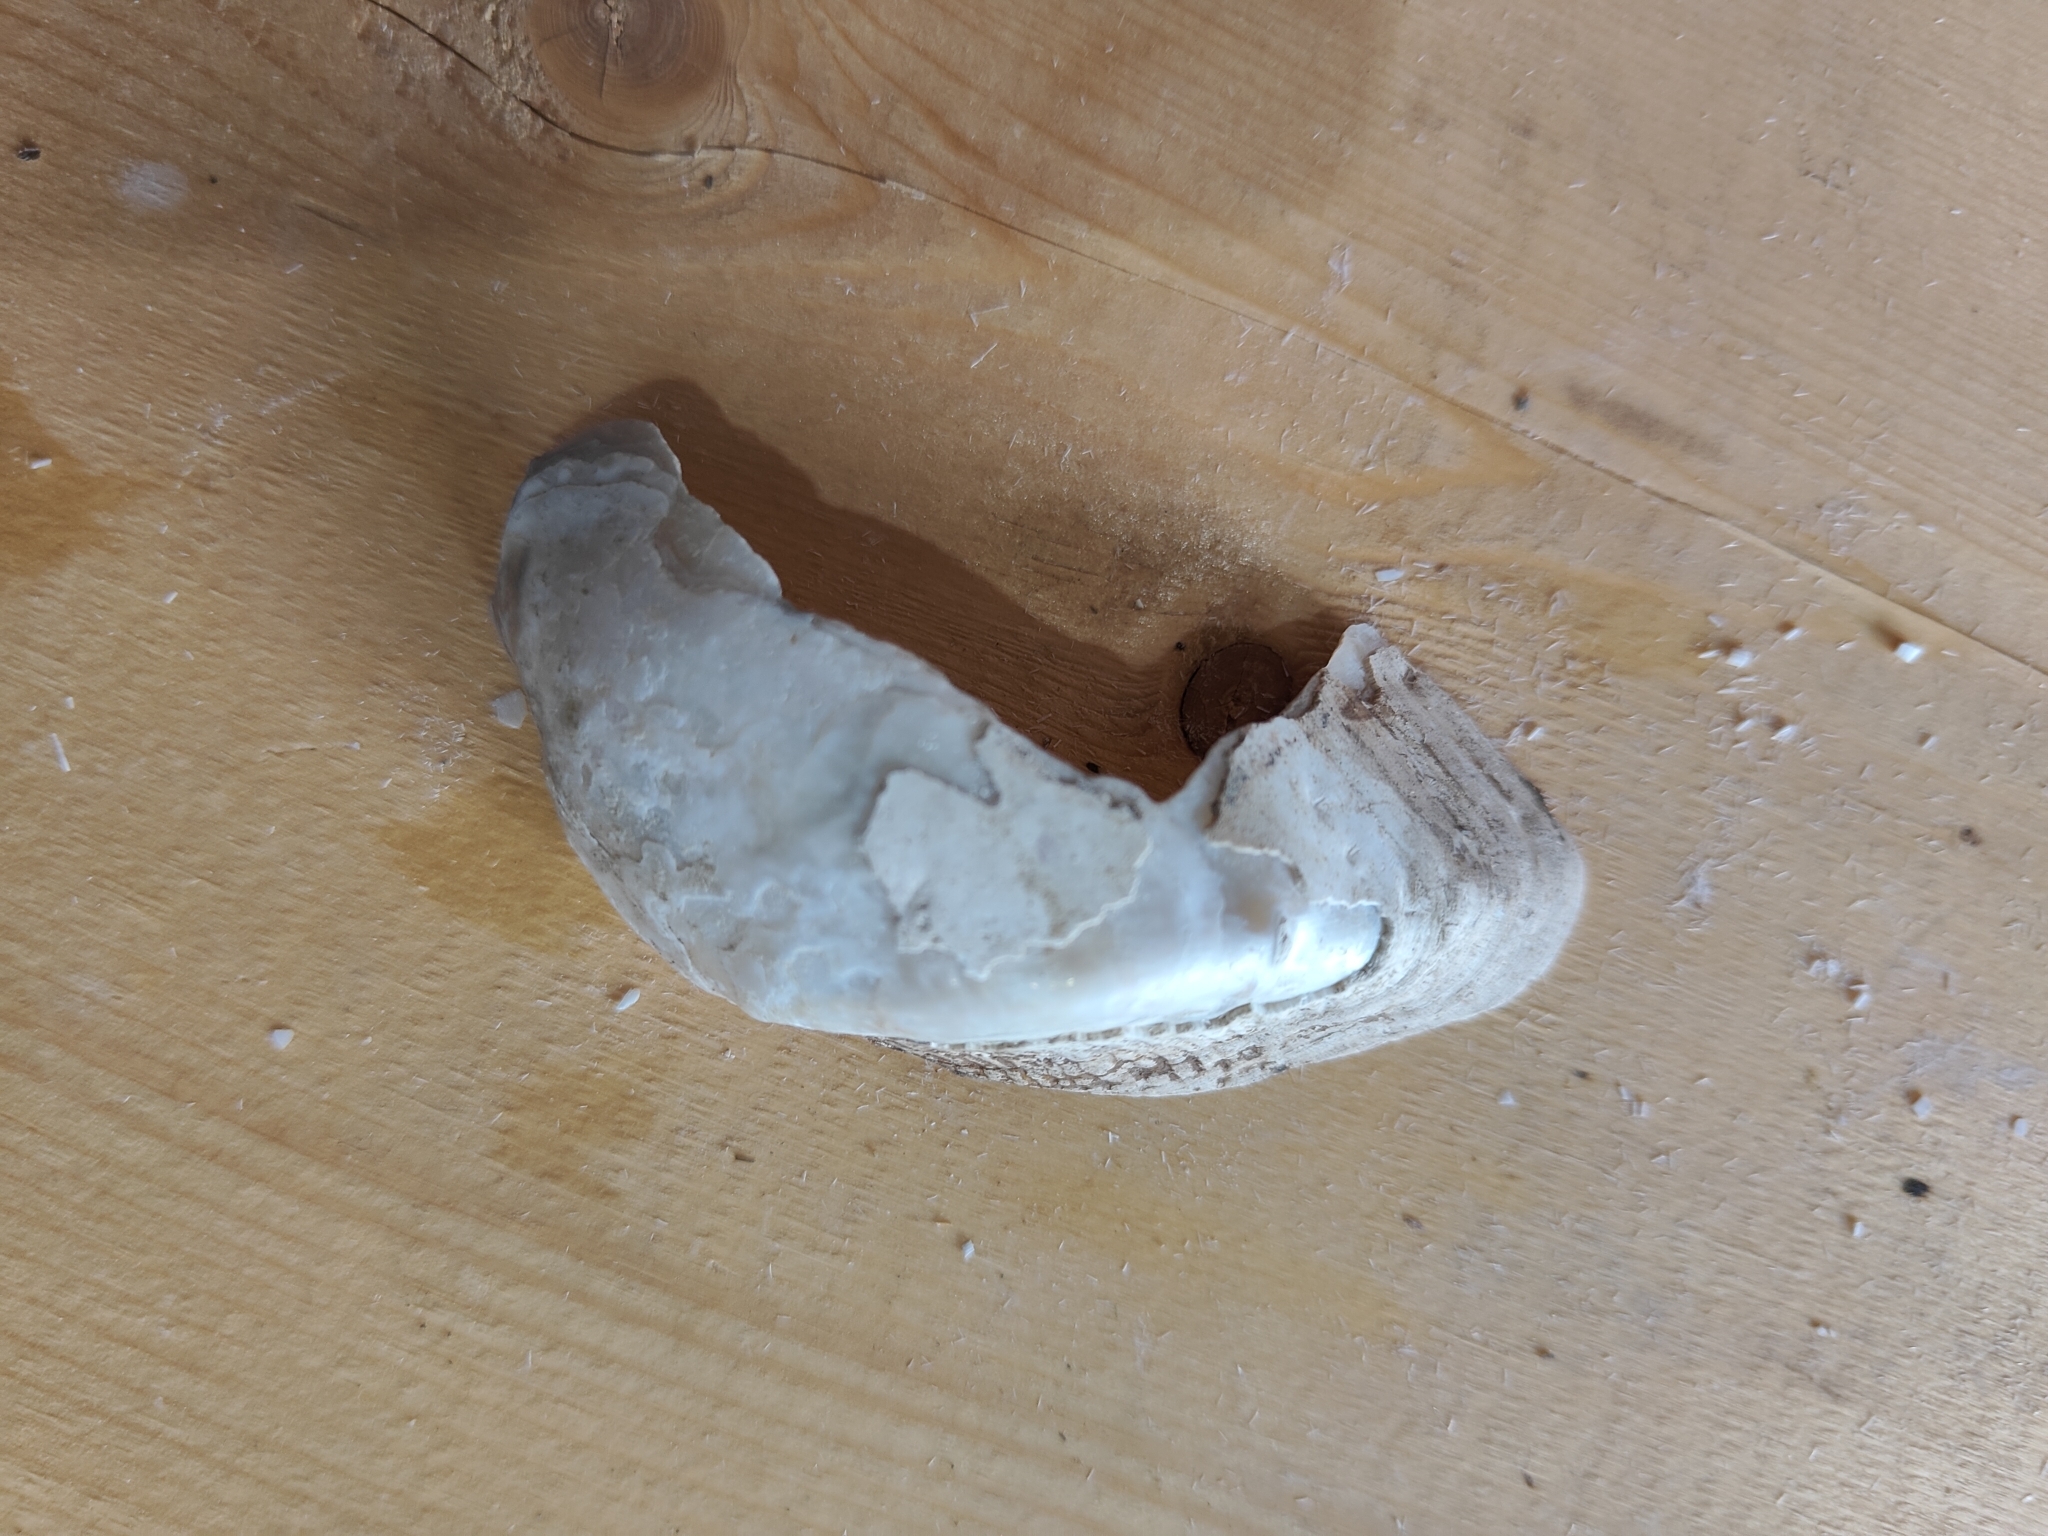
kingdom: Animalia
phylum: Mollusca
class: Bivalvia
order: Unionida
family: Unionidae
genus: Alasmidonta
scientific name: Alasmidonta marginata
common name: Elktoe
